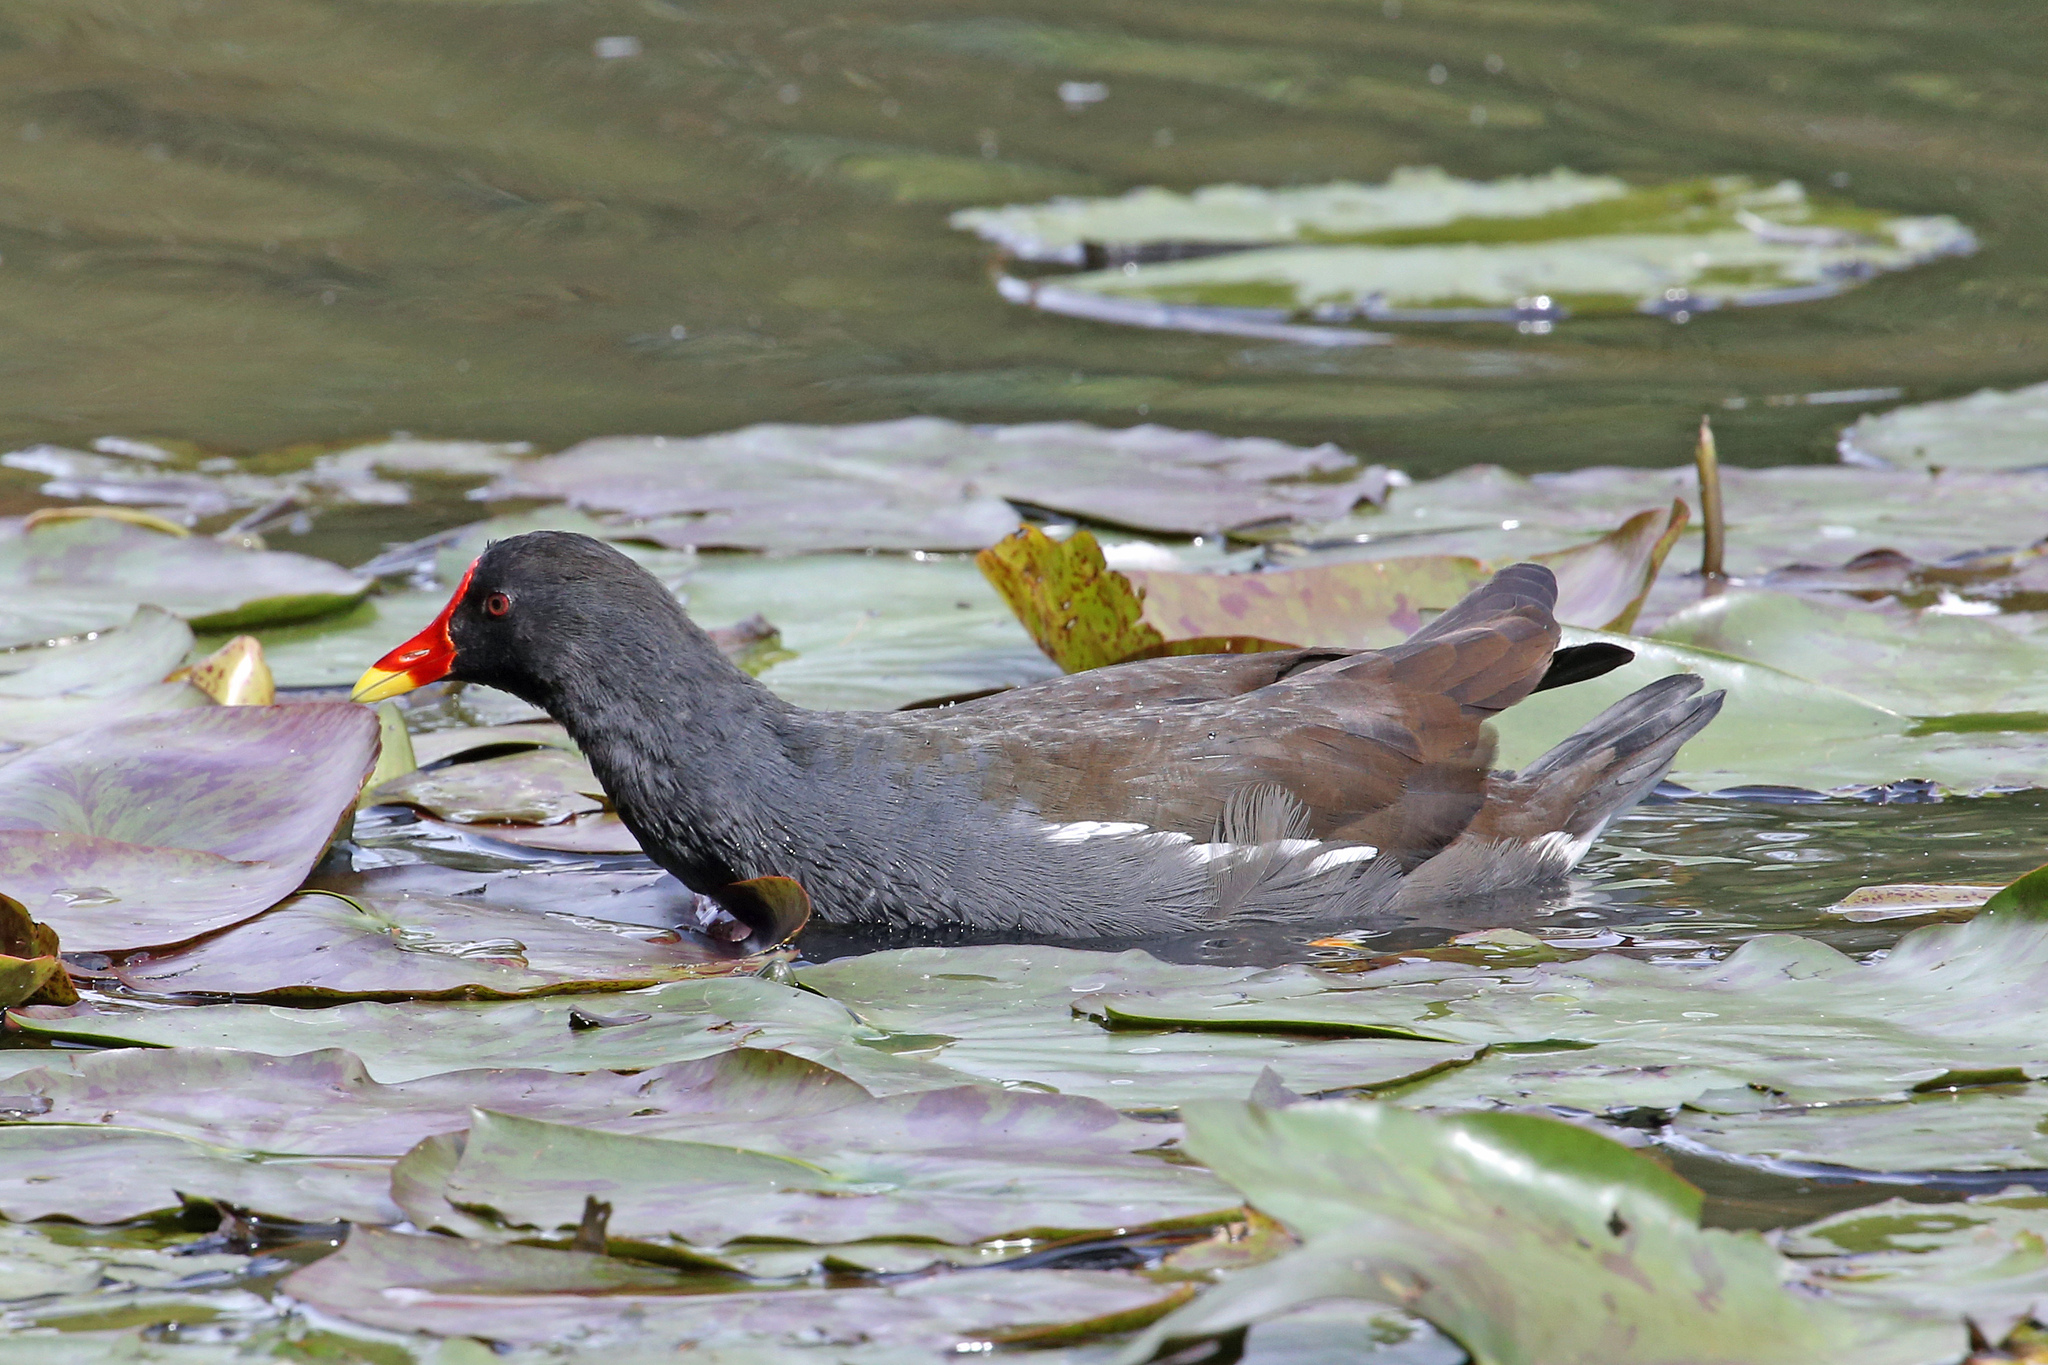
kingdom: Animalia
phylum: Chordata
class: Aves
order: Gruiformes
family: Rallidae
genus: Gallinula
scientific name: Gallinula chloropus
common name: Common moorhen
